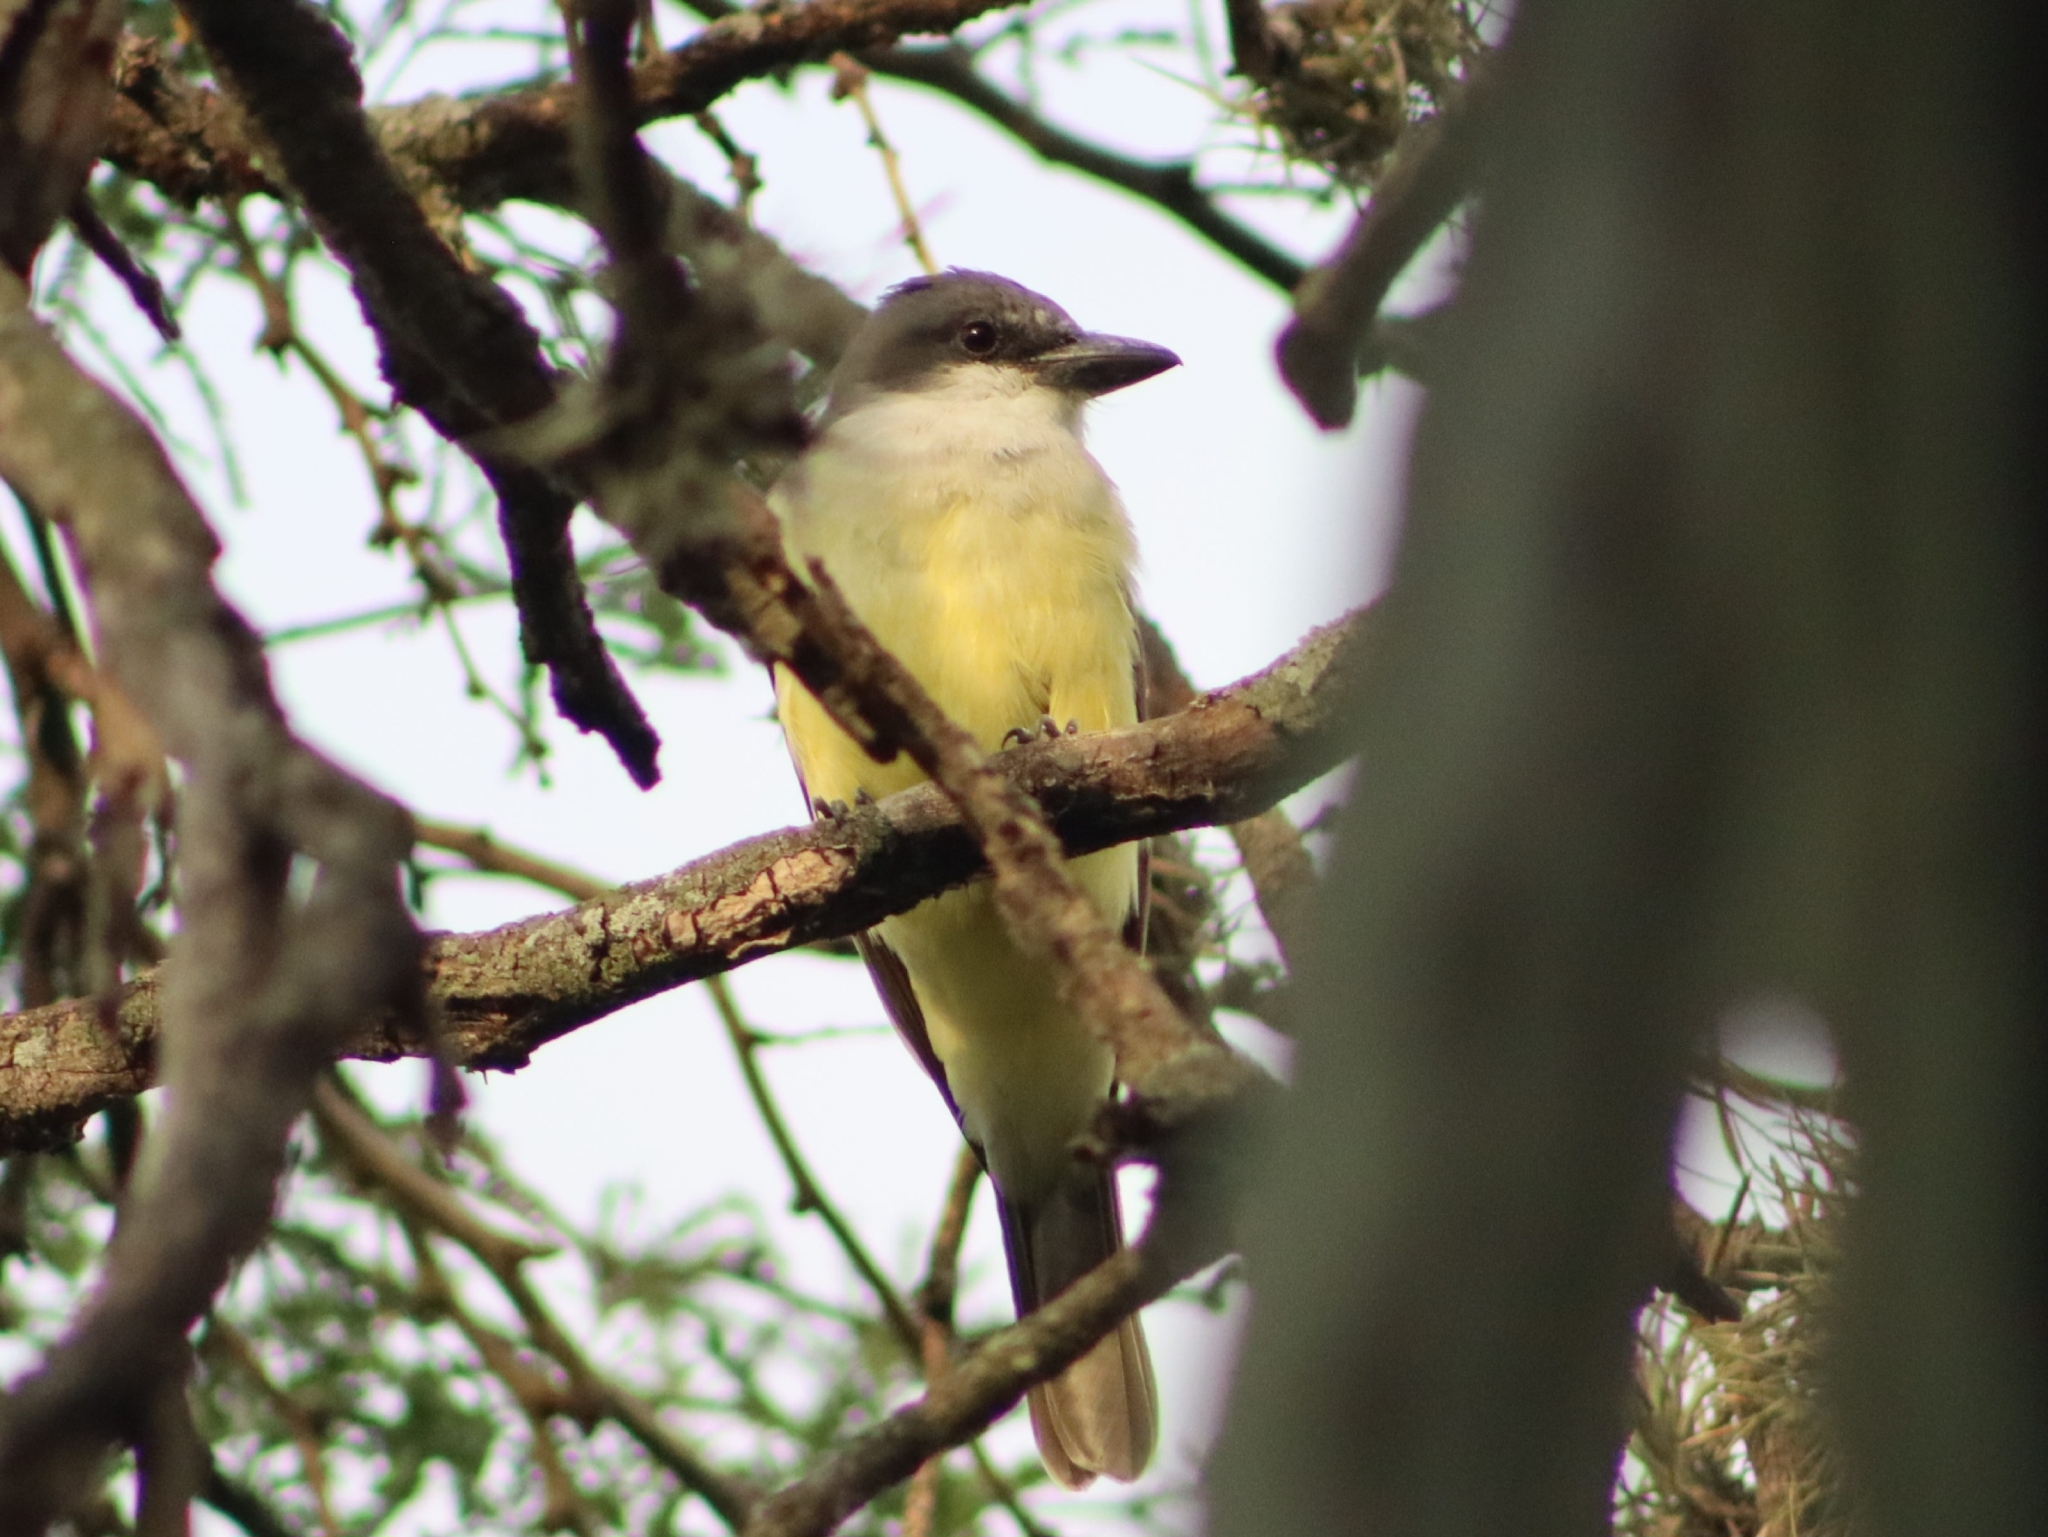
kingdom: Animalia
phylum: Chordata
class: Aves
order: Passeriformes
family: Tyrannidae
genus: Tyrannus
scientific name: Tyrannus crassirostris
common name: Thick-billed kingbird
